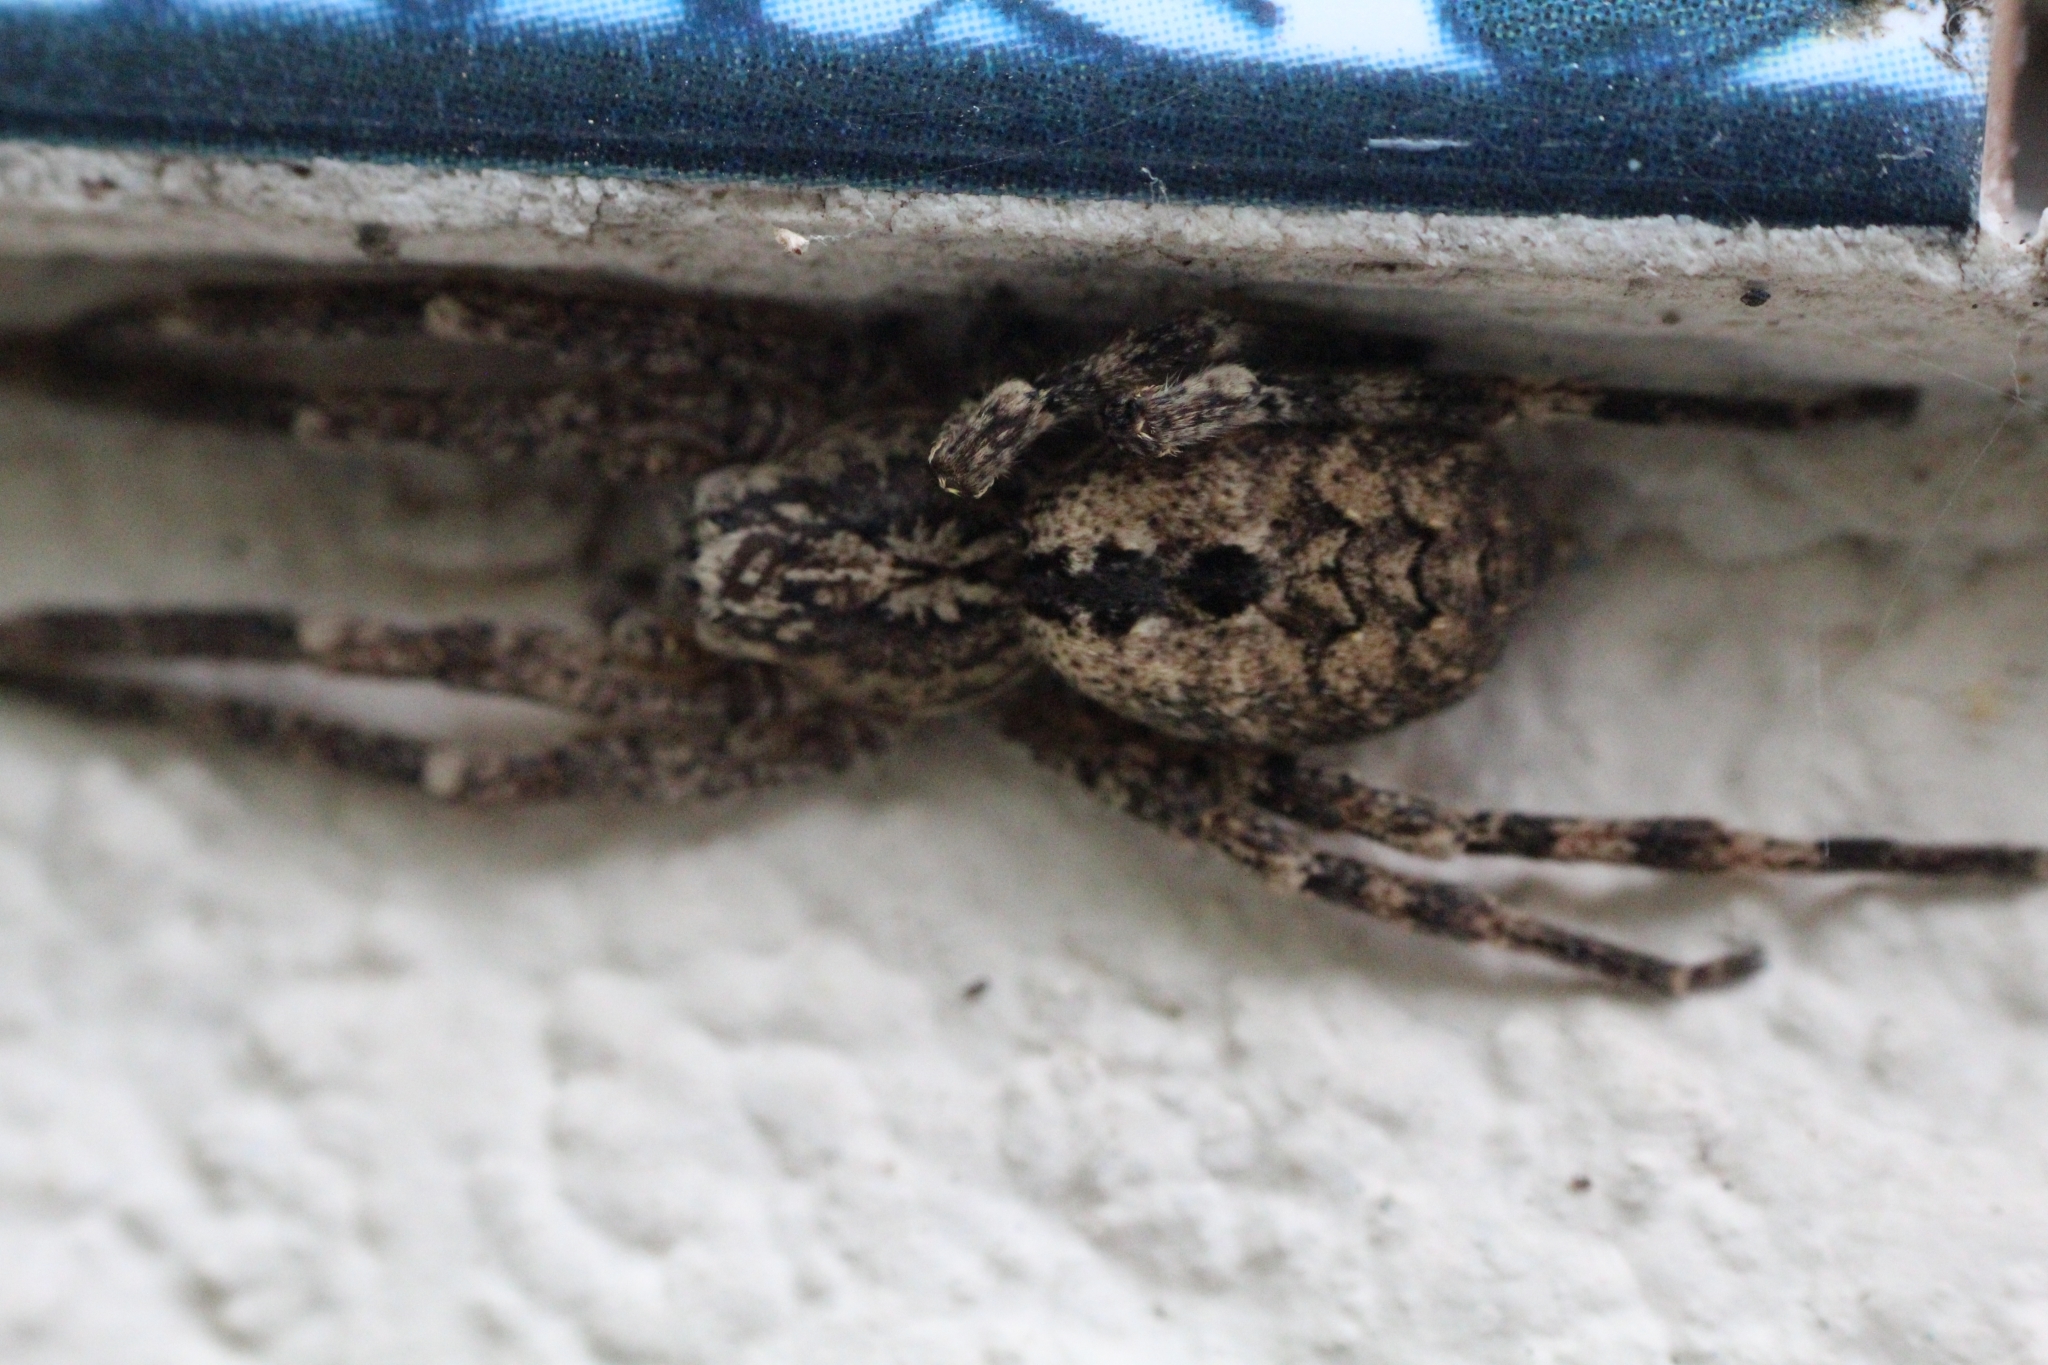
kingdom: Animalia
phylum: Arthropoda
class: Arachnida
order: Araneae
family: Zoropsidae
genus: Zoropsis
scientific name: Zoropsis spinimana
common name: Zoropsid spider
